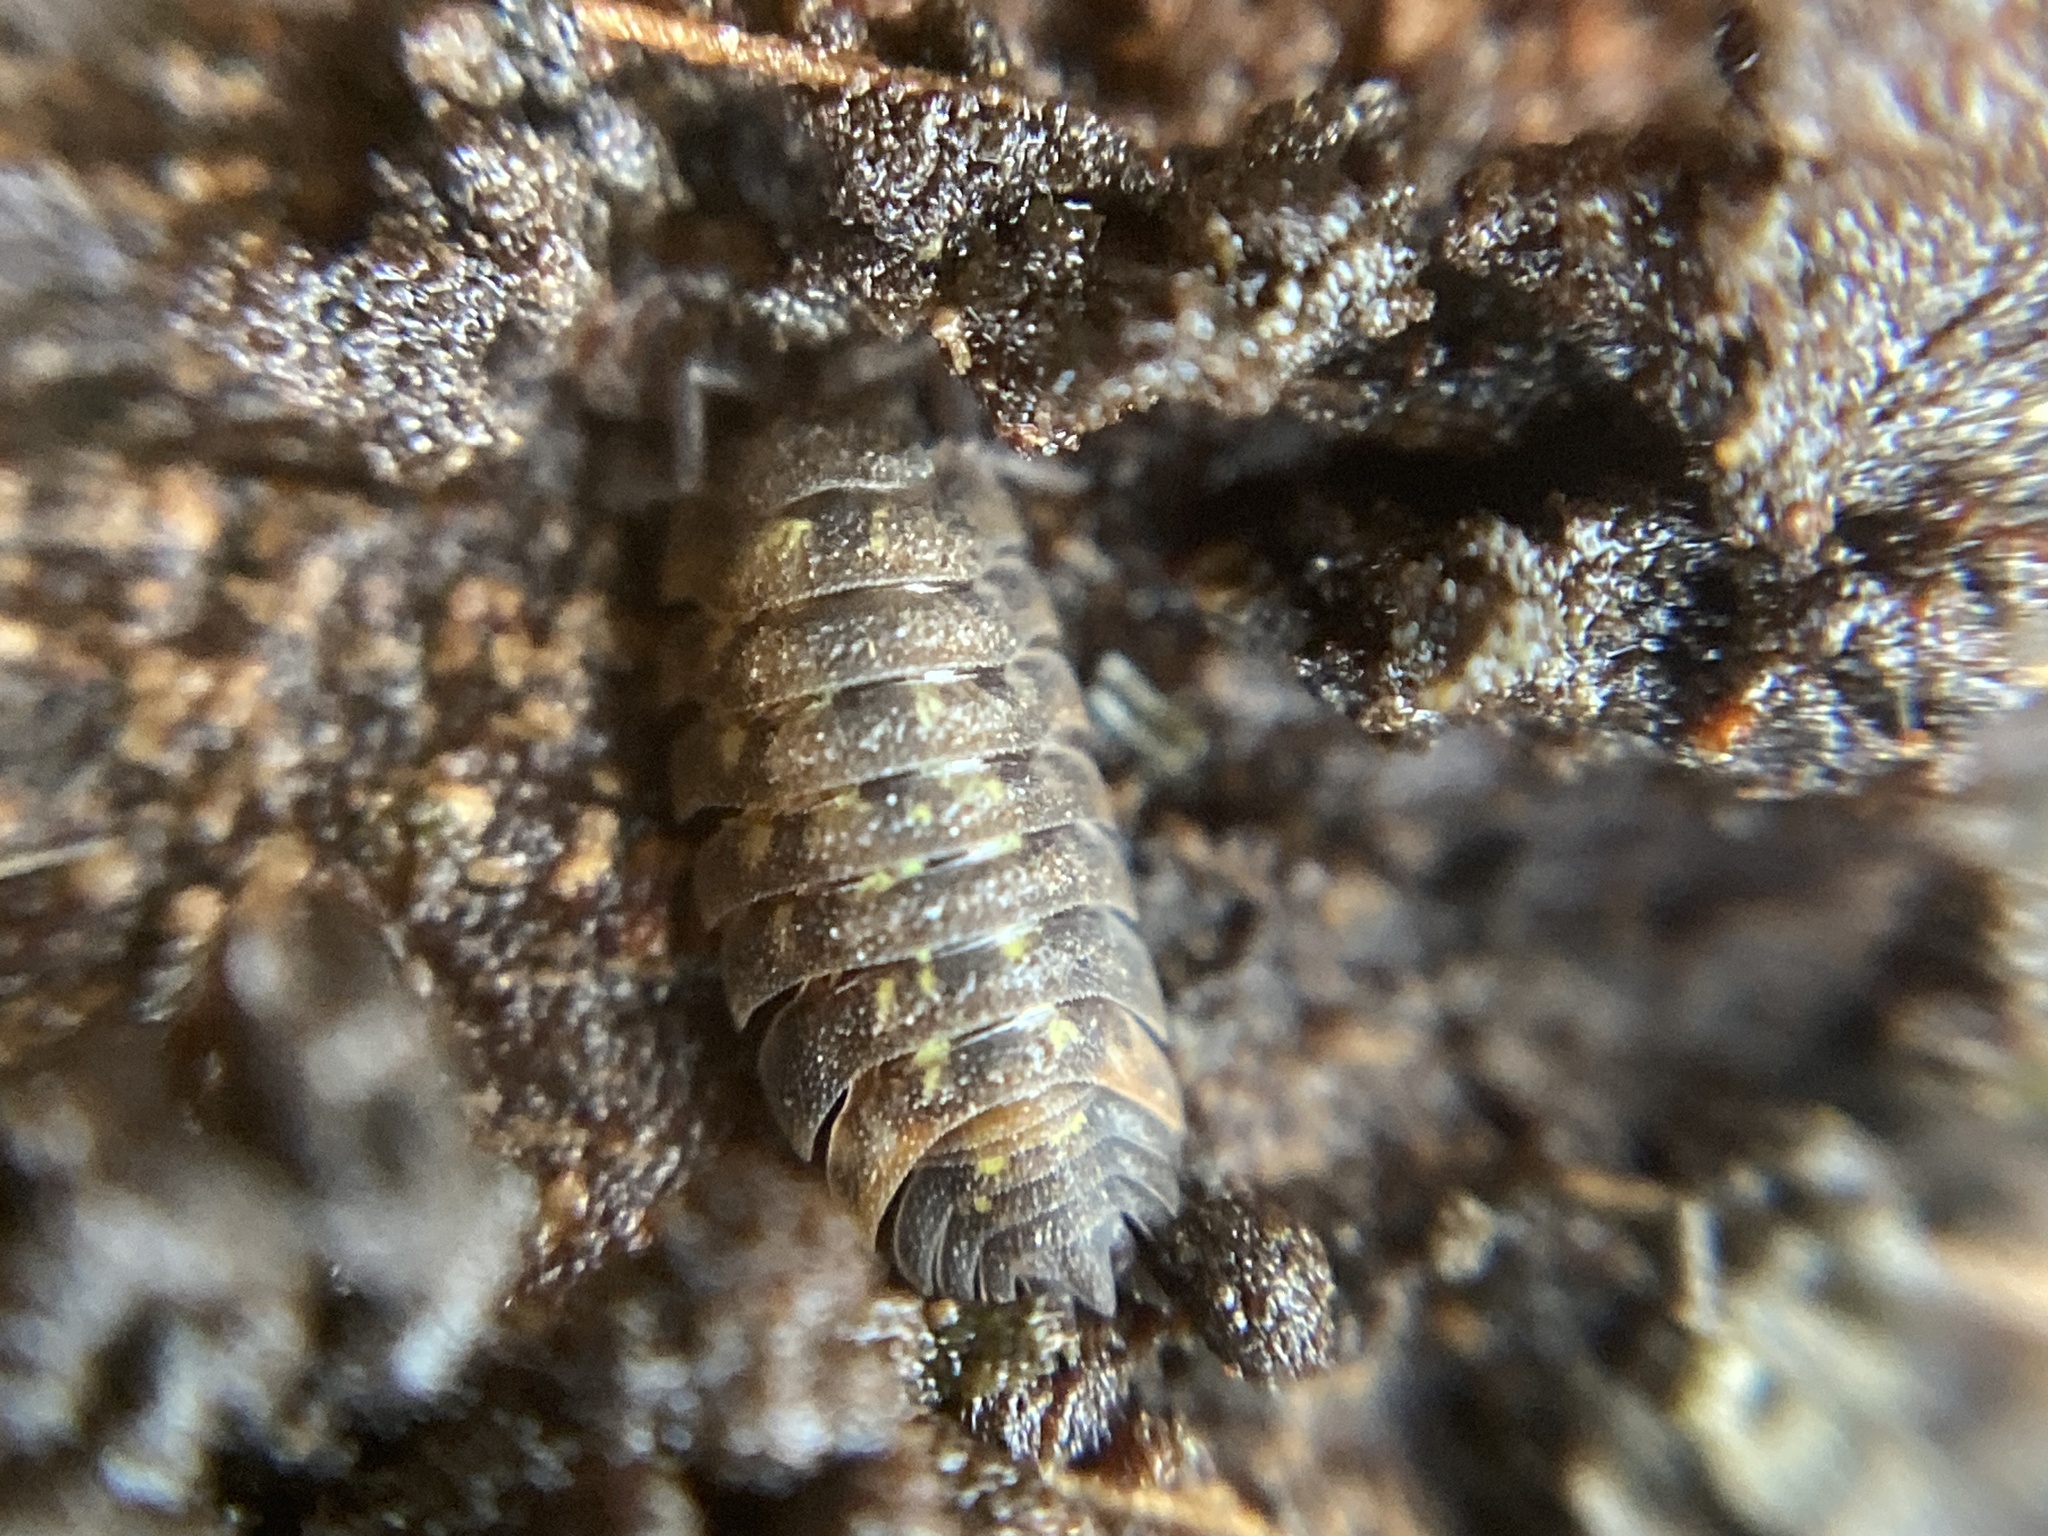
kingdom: Animalia
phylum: Arthropoda
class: Malacostraca
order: Isopoda
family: Oniscidae
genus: Oniscus
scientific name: Oniscus asellus
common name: Common shiny woodlouse
